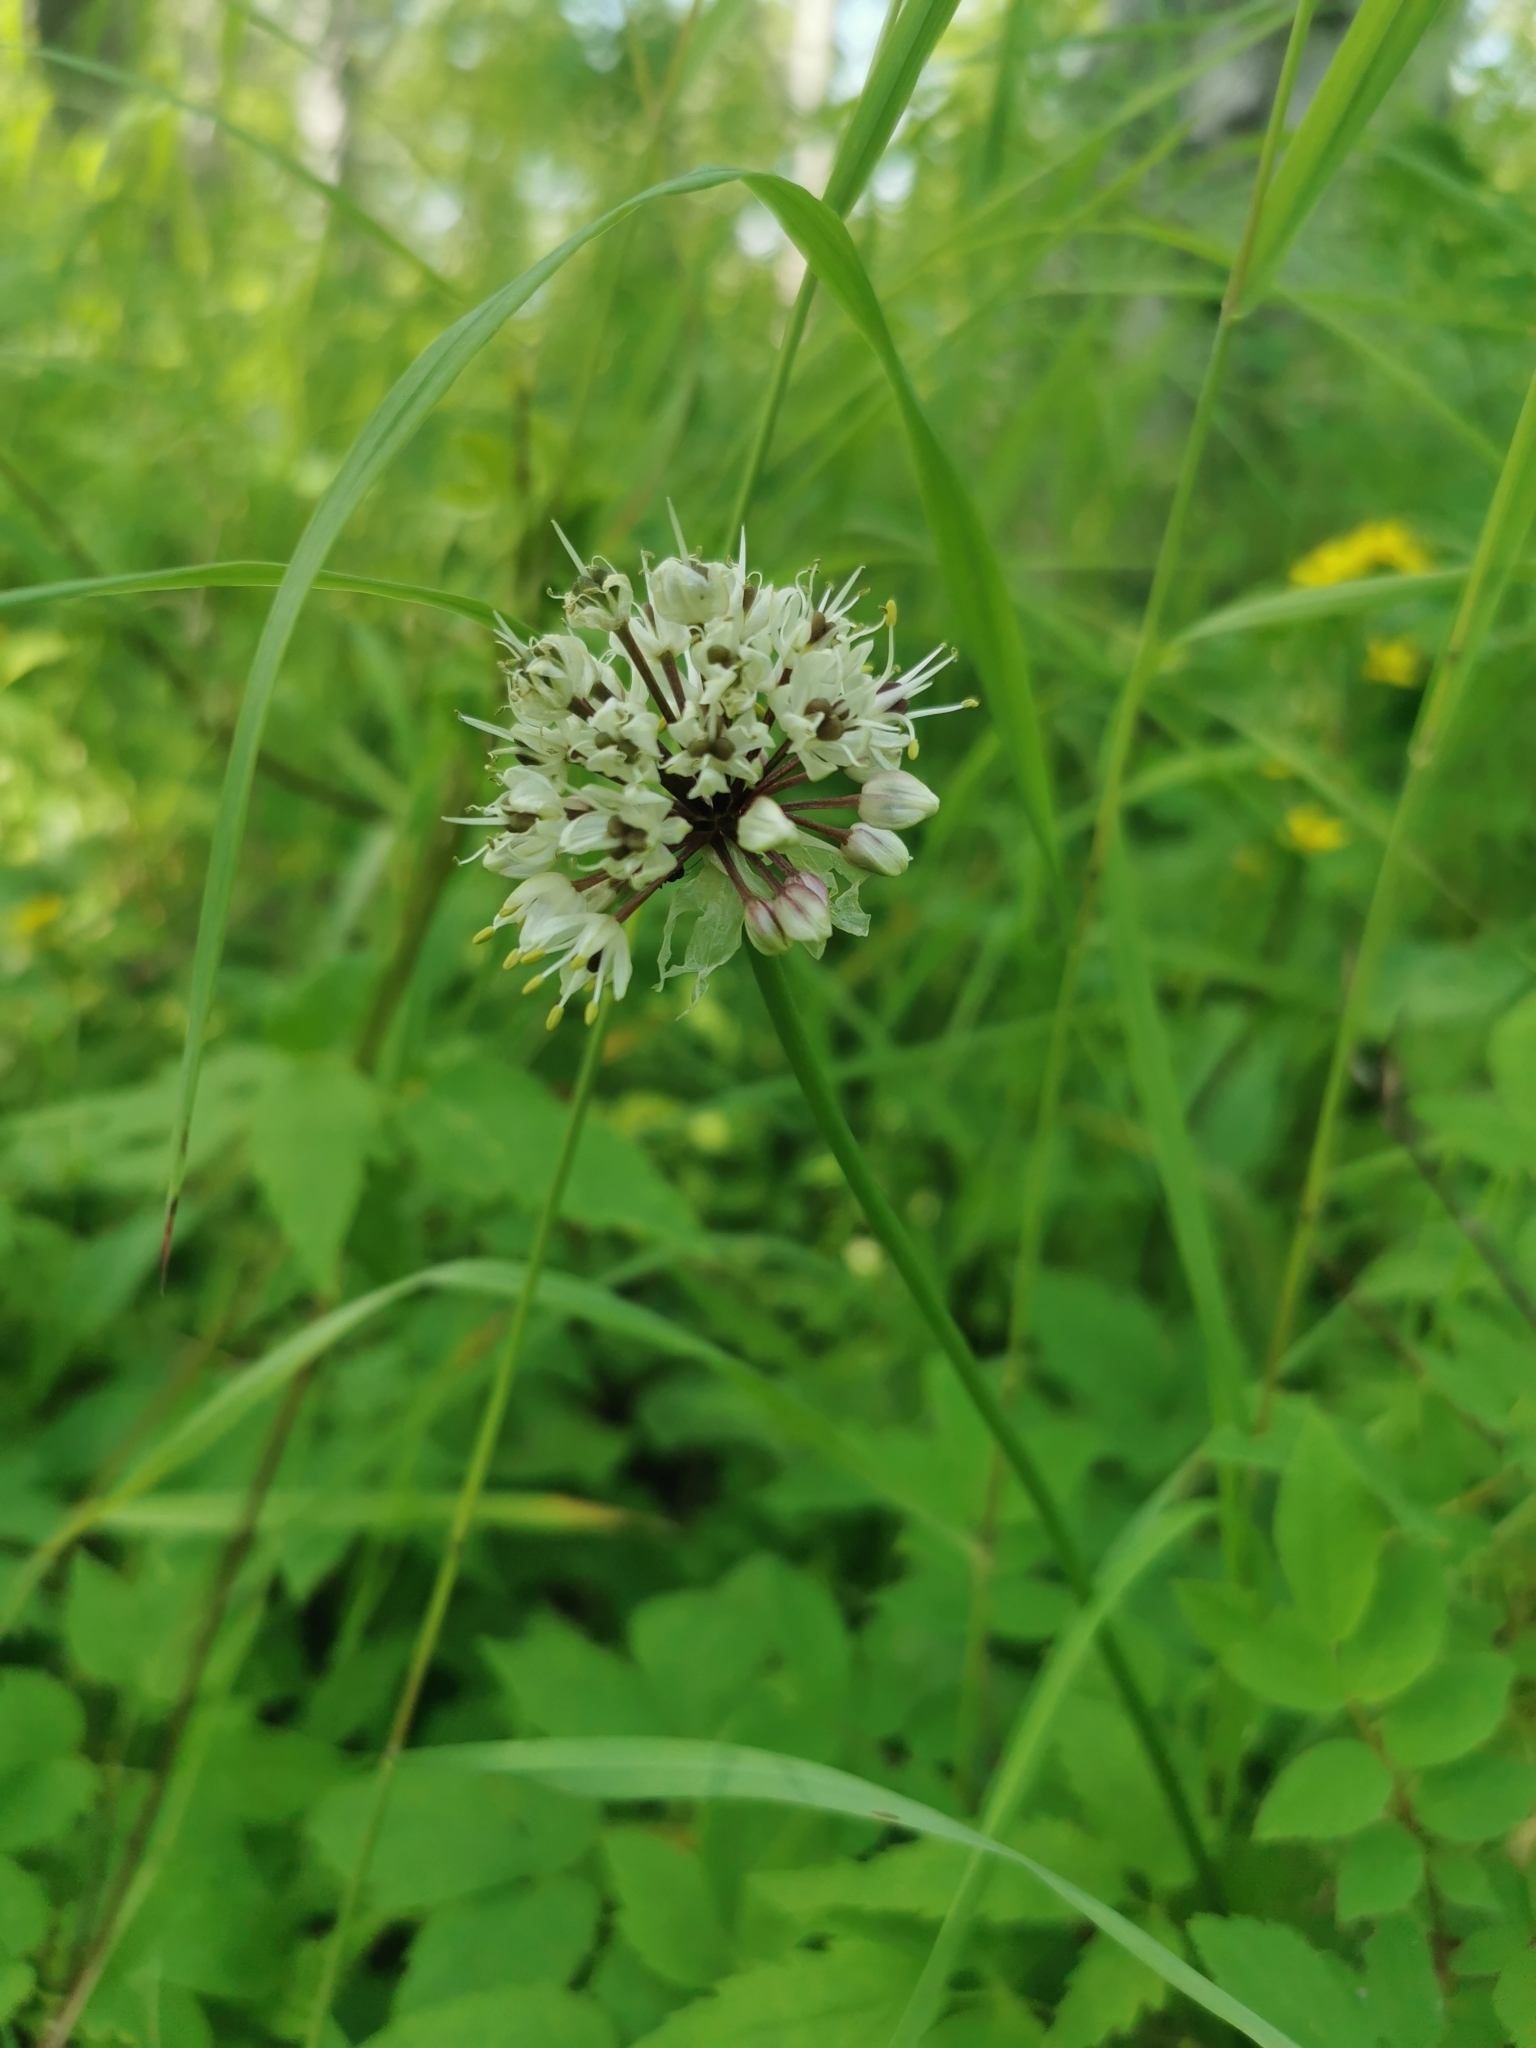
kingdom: Plantae
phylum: Tracheophyta
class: Liliopsida
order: Asparagales
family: Amaryllidaceae
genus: Allium
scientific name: Allium ochotense
